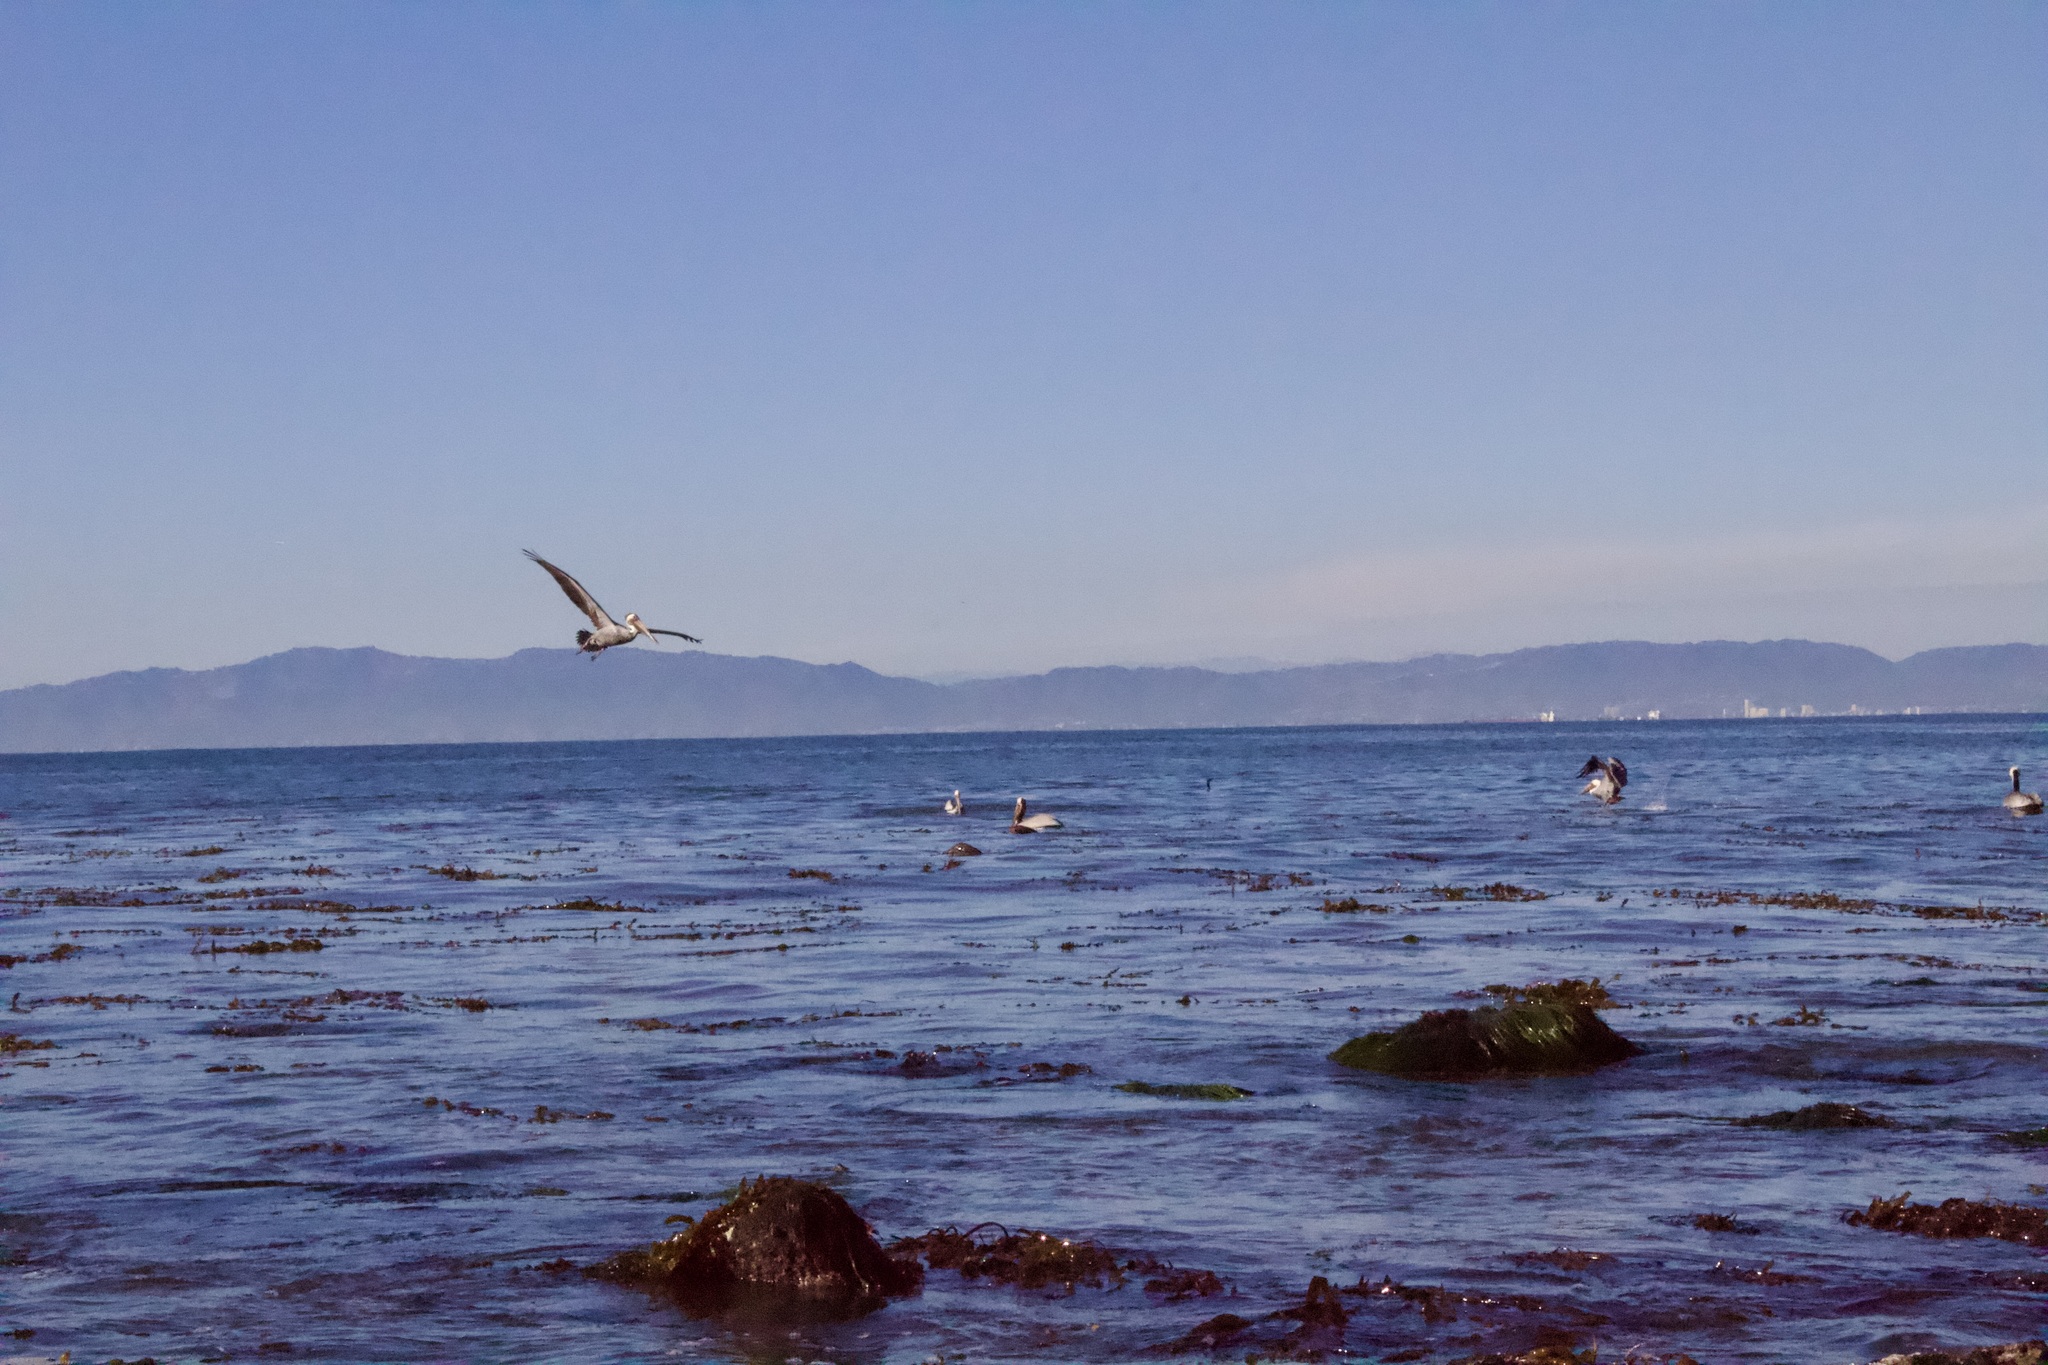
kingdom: Animalia
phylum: Chordata
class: Aves
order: Pelecaniformes
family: Pelecanidae
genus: Pelecanus
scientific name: Pelecanus occidentalis
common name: Brown pelican
